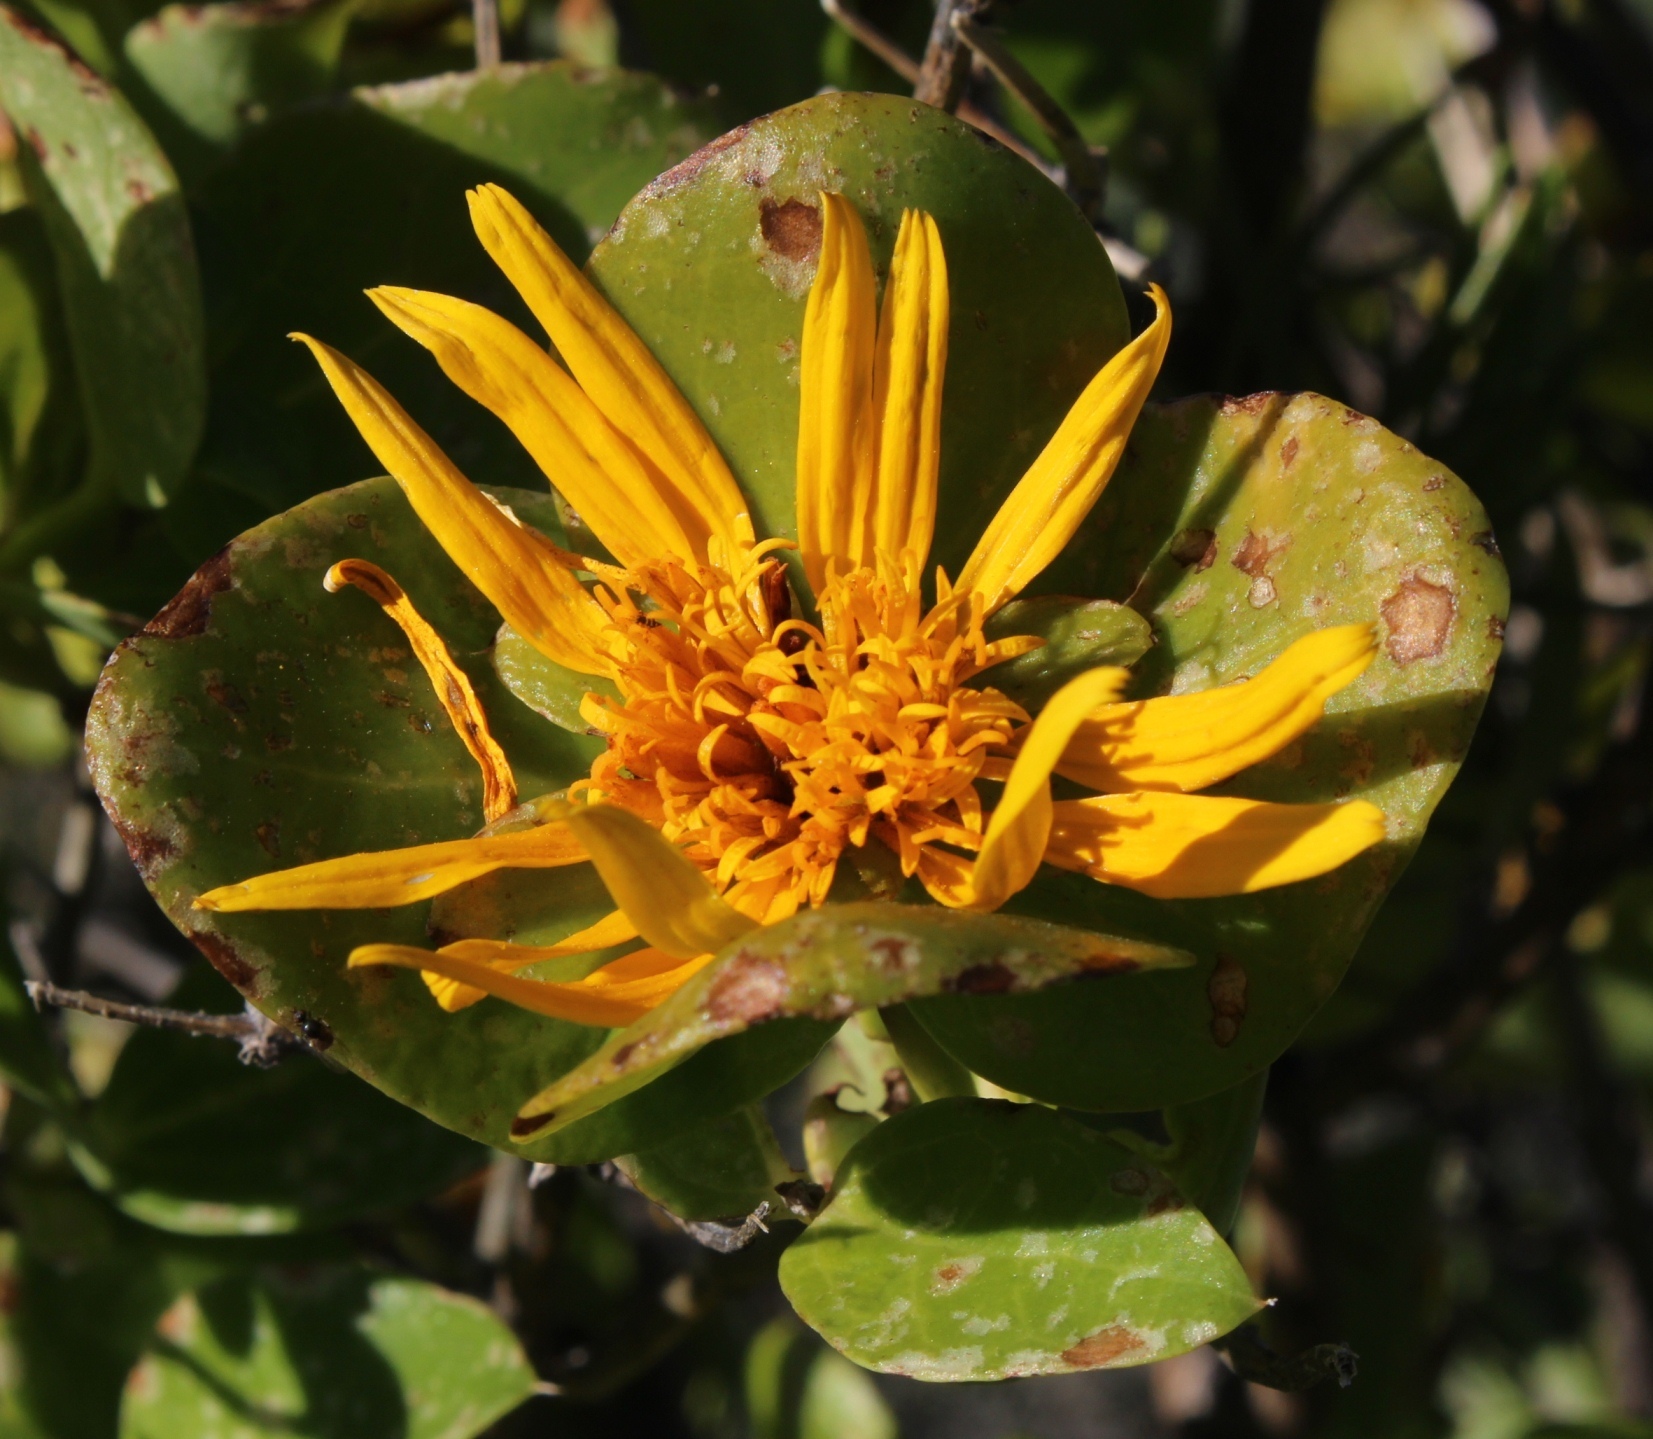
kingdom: Plantae
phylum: Tracheophyta
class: Magnoliopsida
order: Asterales
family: Asteraceae
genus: Didelta
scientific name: Didelta spinosa
